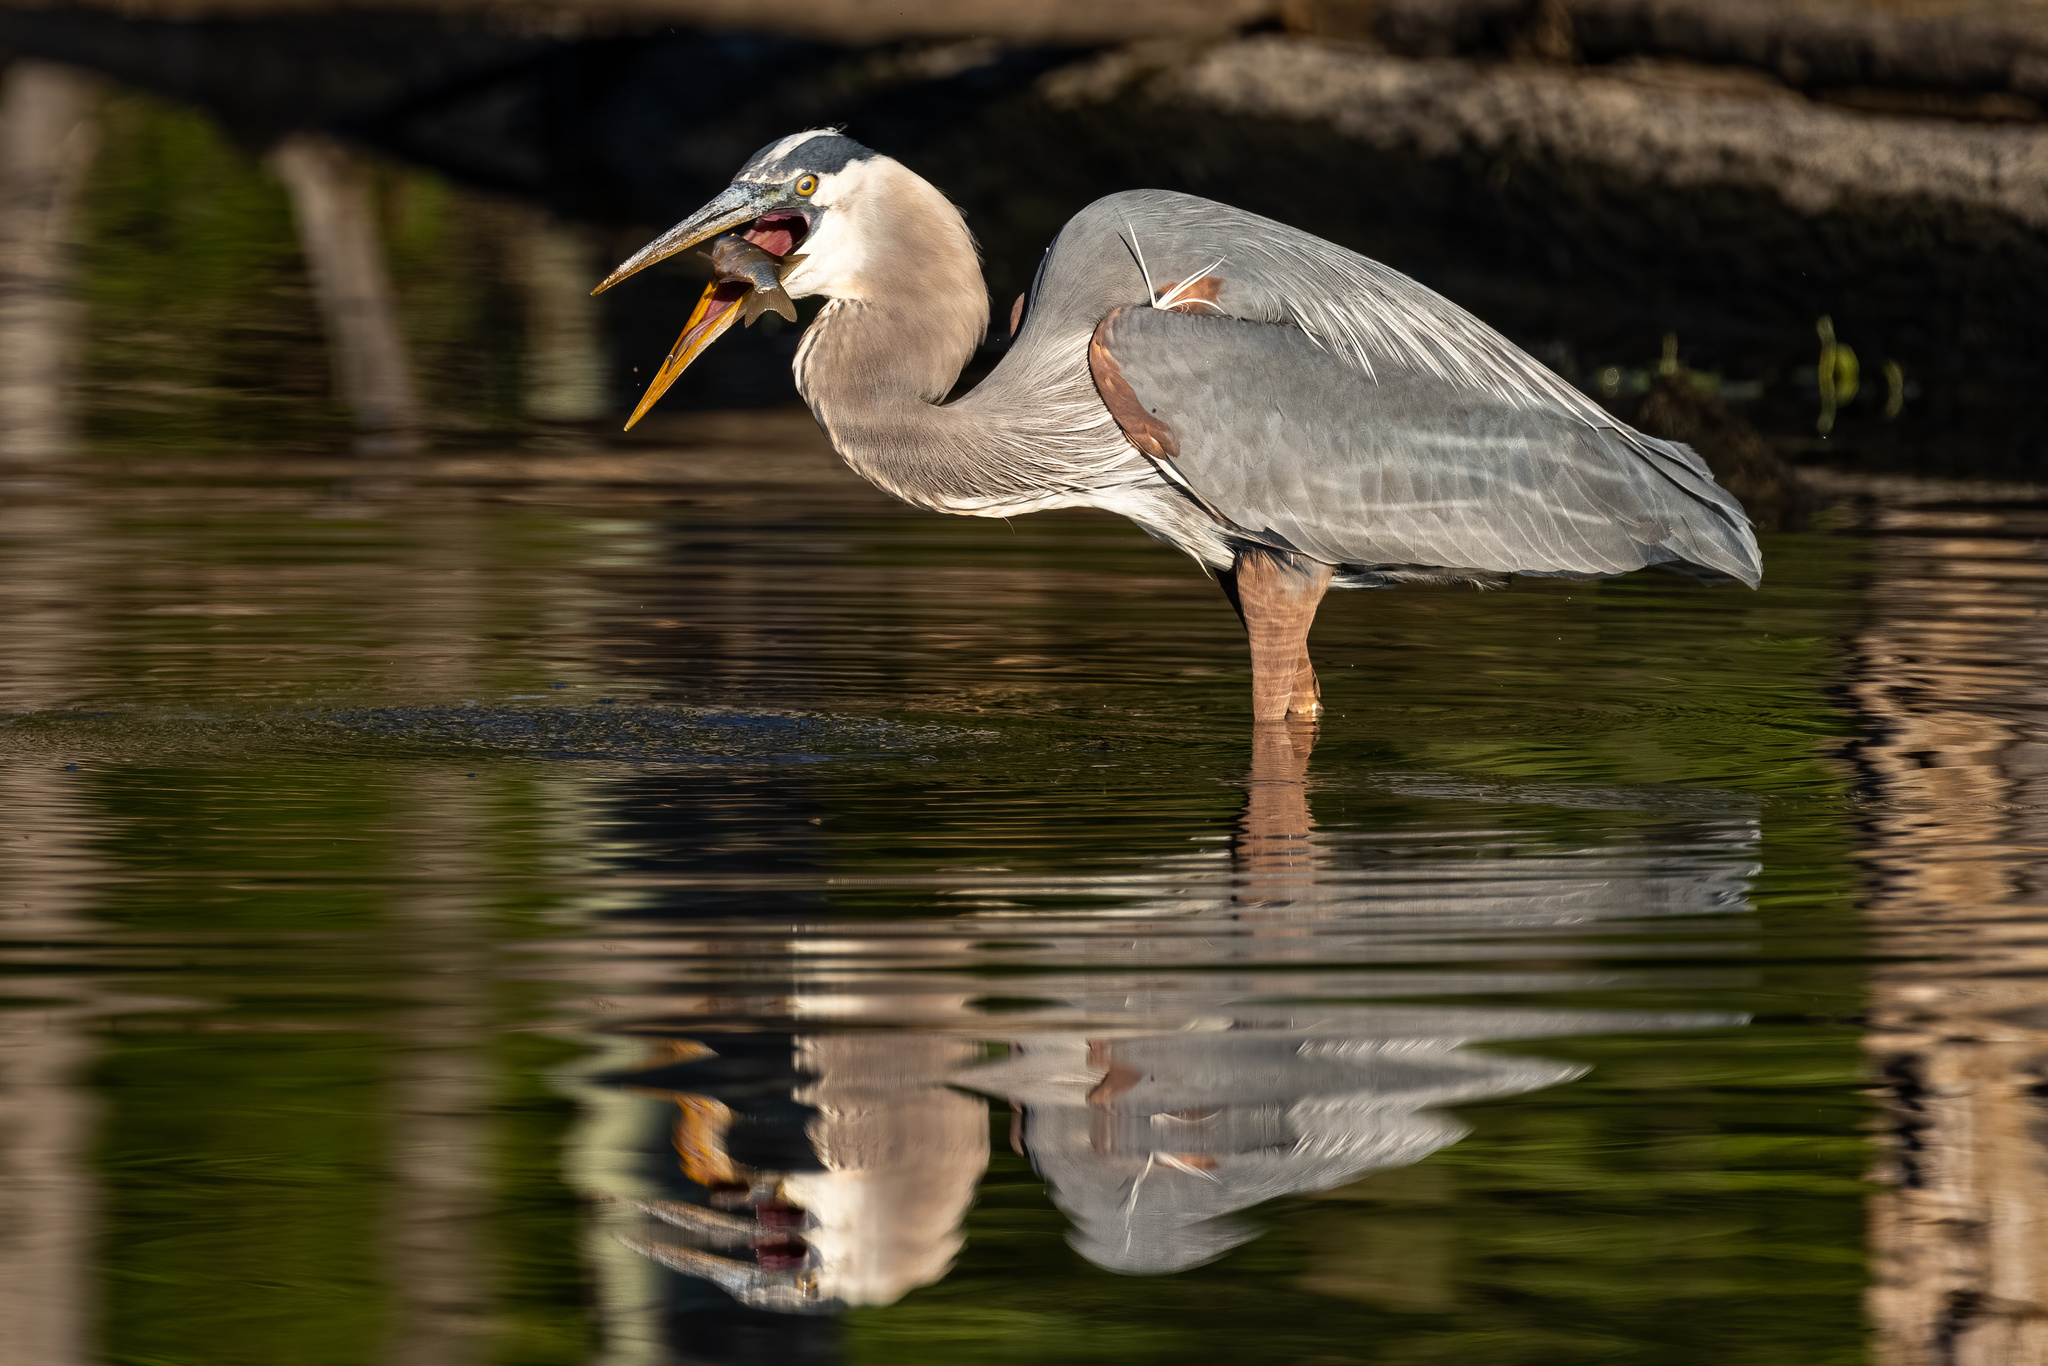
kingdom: Animalia
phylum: Chordata
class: Aves
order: Pelecaniformes
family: Ardeidae
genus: Ardea
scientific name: Ardea herodias
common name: Great blue heron
